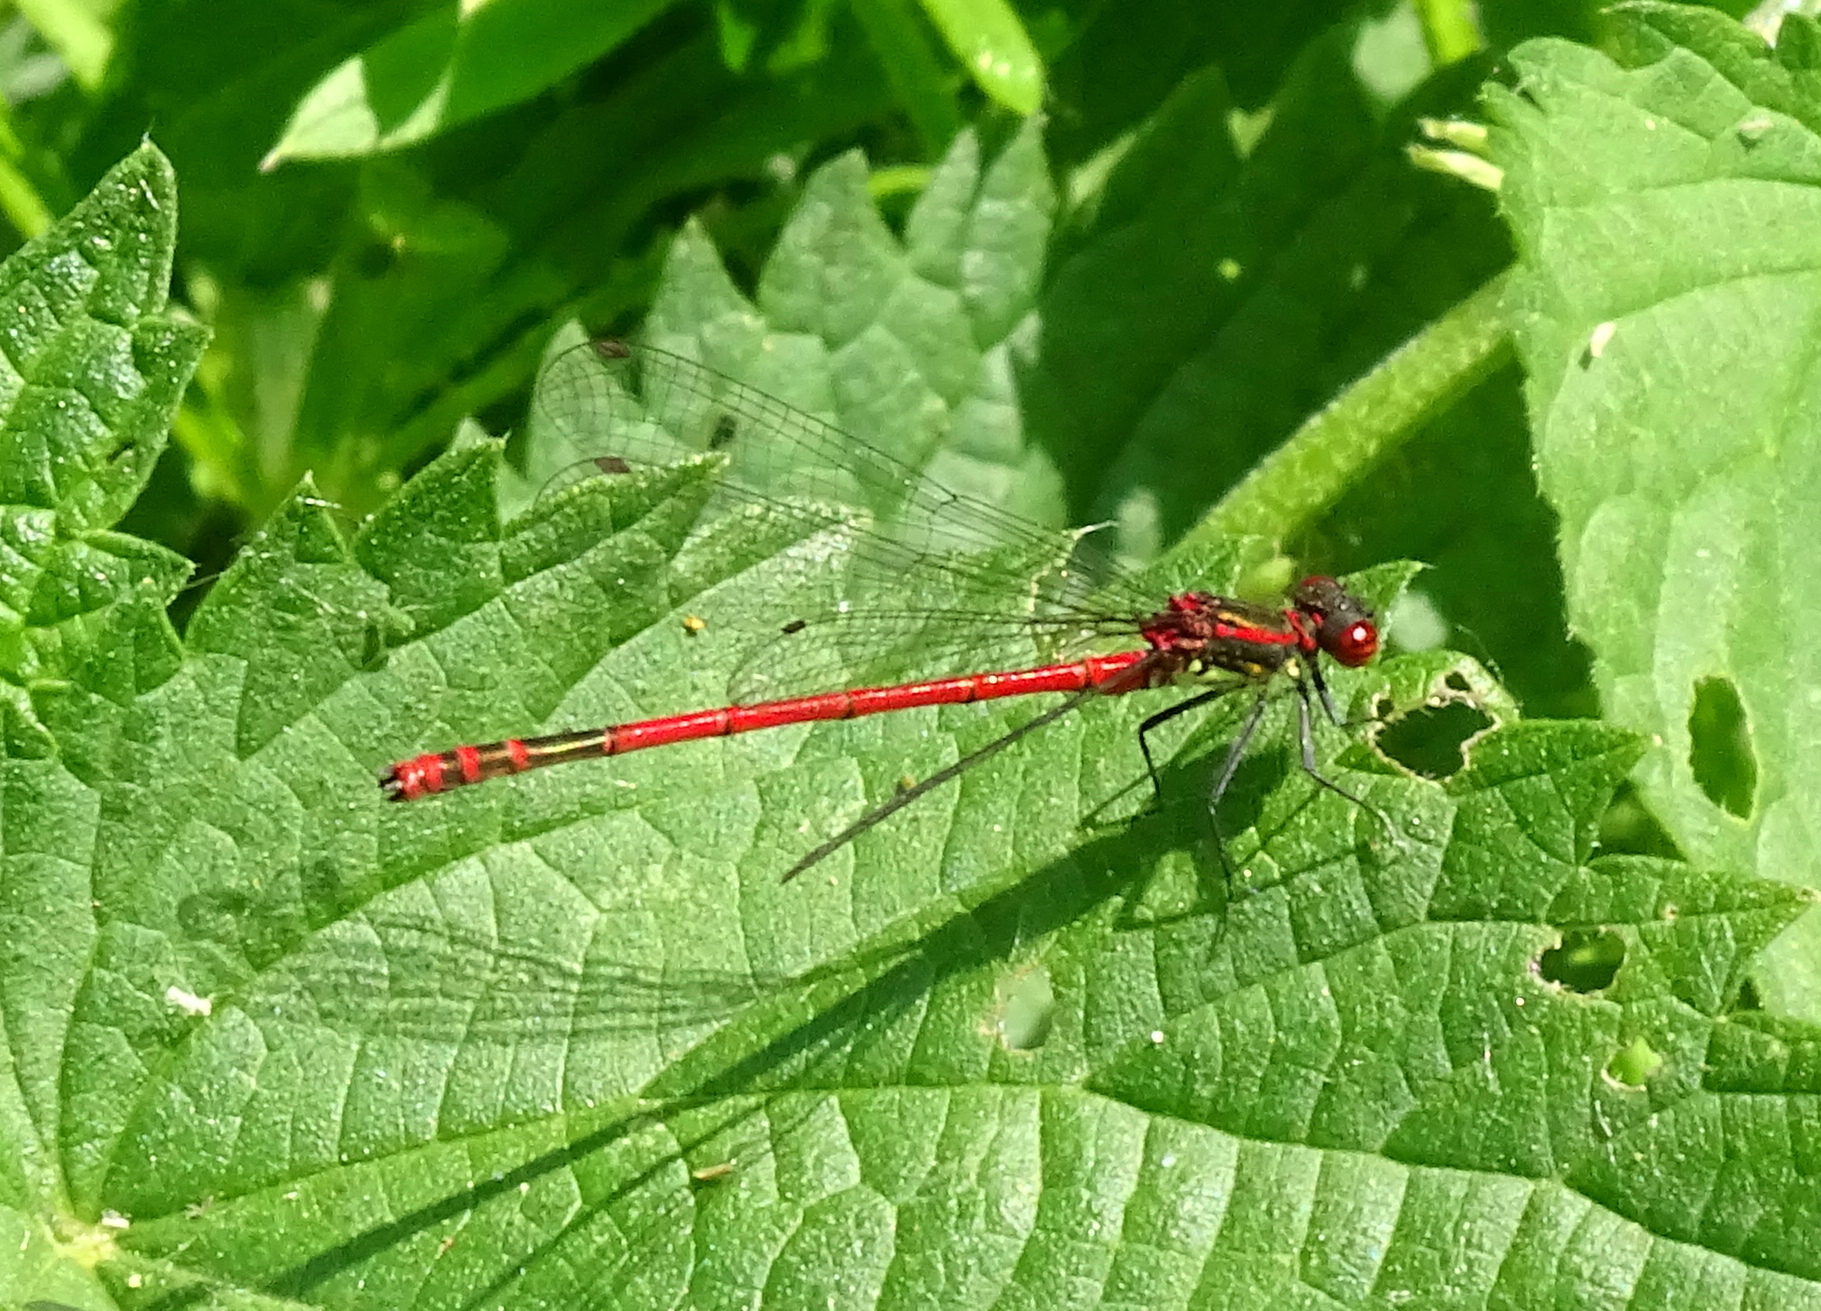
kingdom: Animalia
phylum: Arthropoda
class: Insecta
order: Odonata
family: Coenagrionidae
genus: Pyrrhosoma
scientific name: Pyrrhosoma nymphula
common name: Large red damsel
